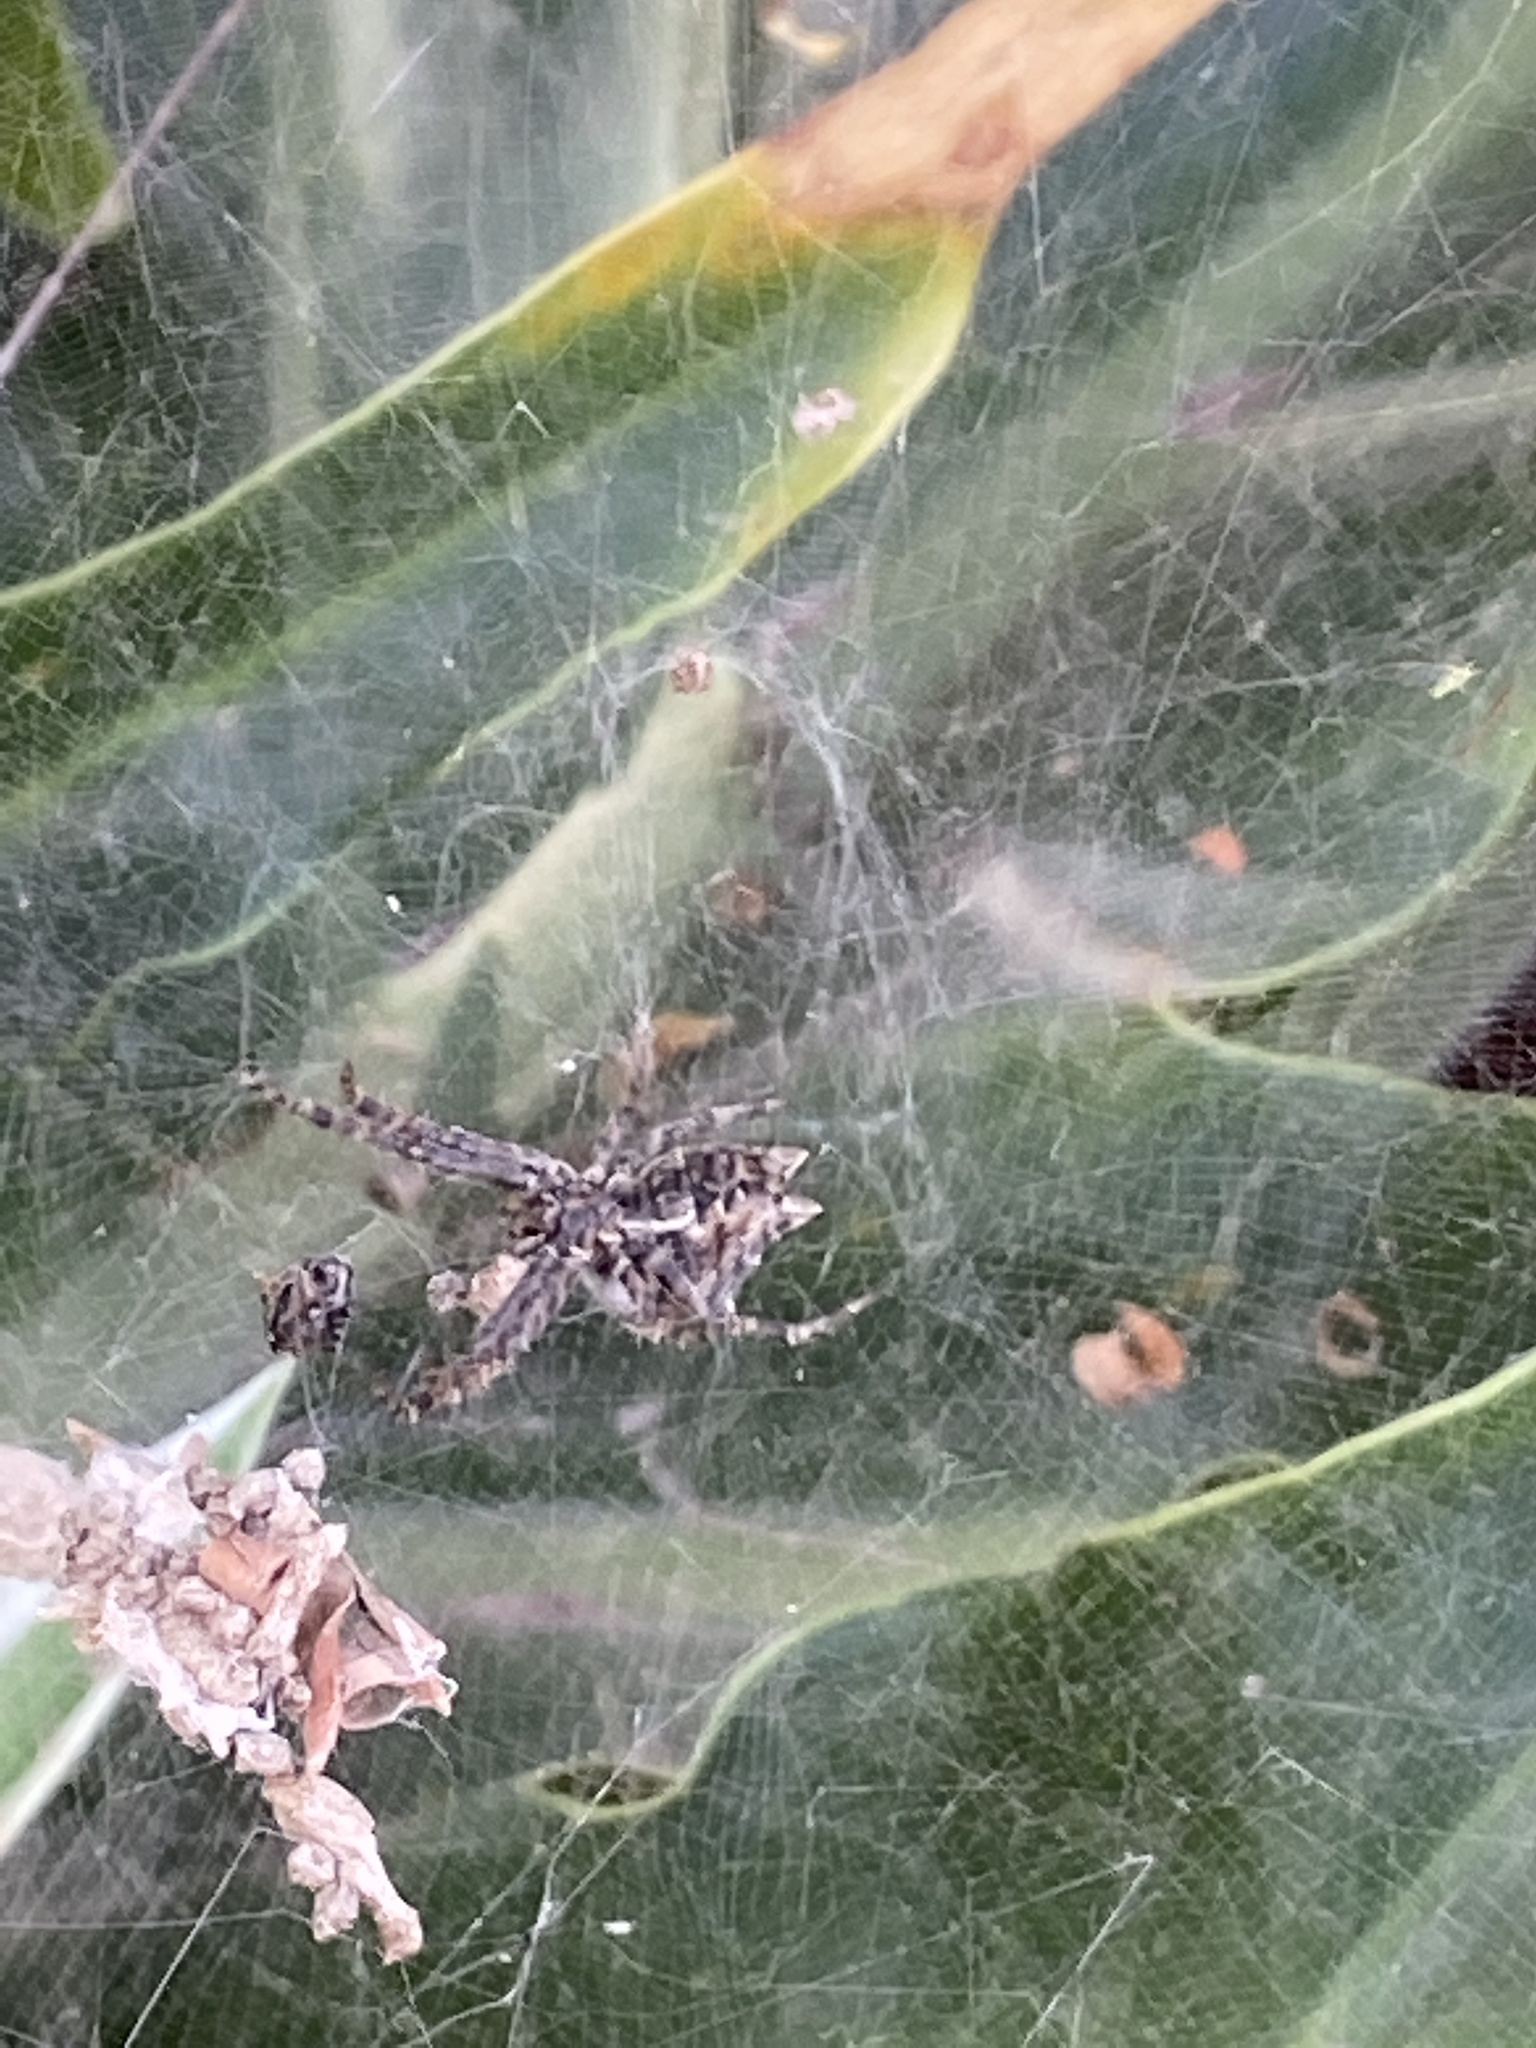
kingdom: Animalia
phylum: Arthropoda
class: Arachnida
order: Araneae
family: Araneidae
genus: Cyrtophora
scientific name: Cyrtophora citricola
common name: Orb weavers
